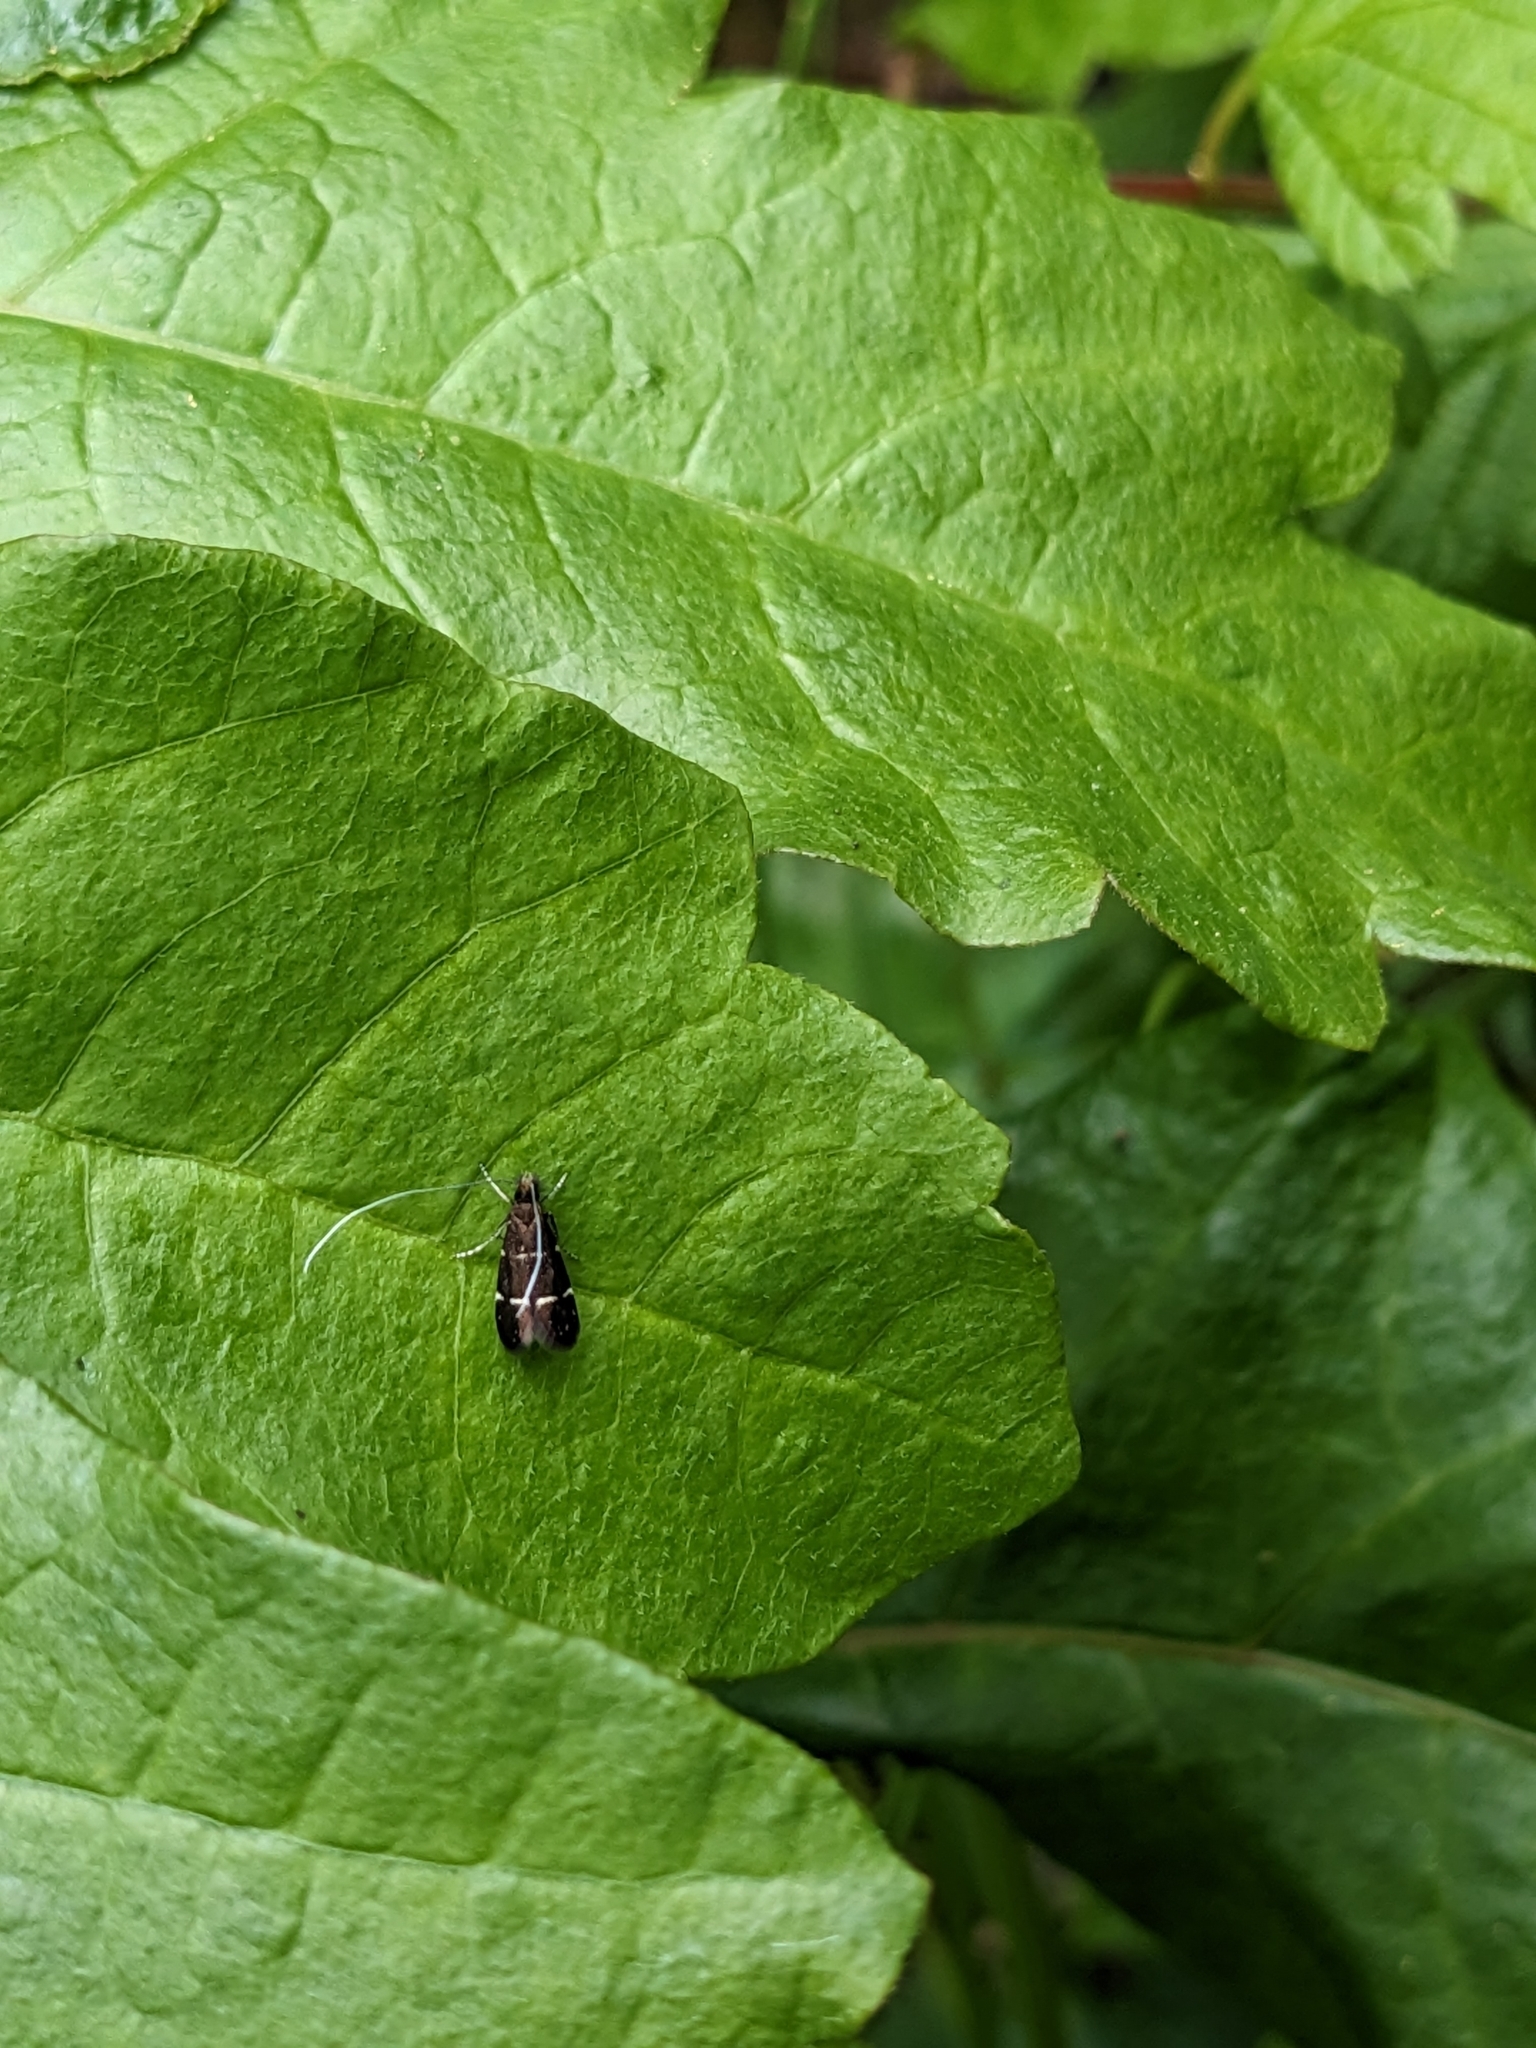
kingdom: Animalia
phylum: Arthropoda
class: Insecta
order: Lepidoptera
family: Adelidae
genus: Adela
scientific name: Adela septentrionella
